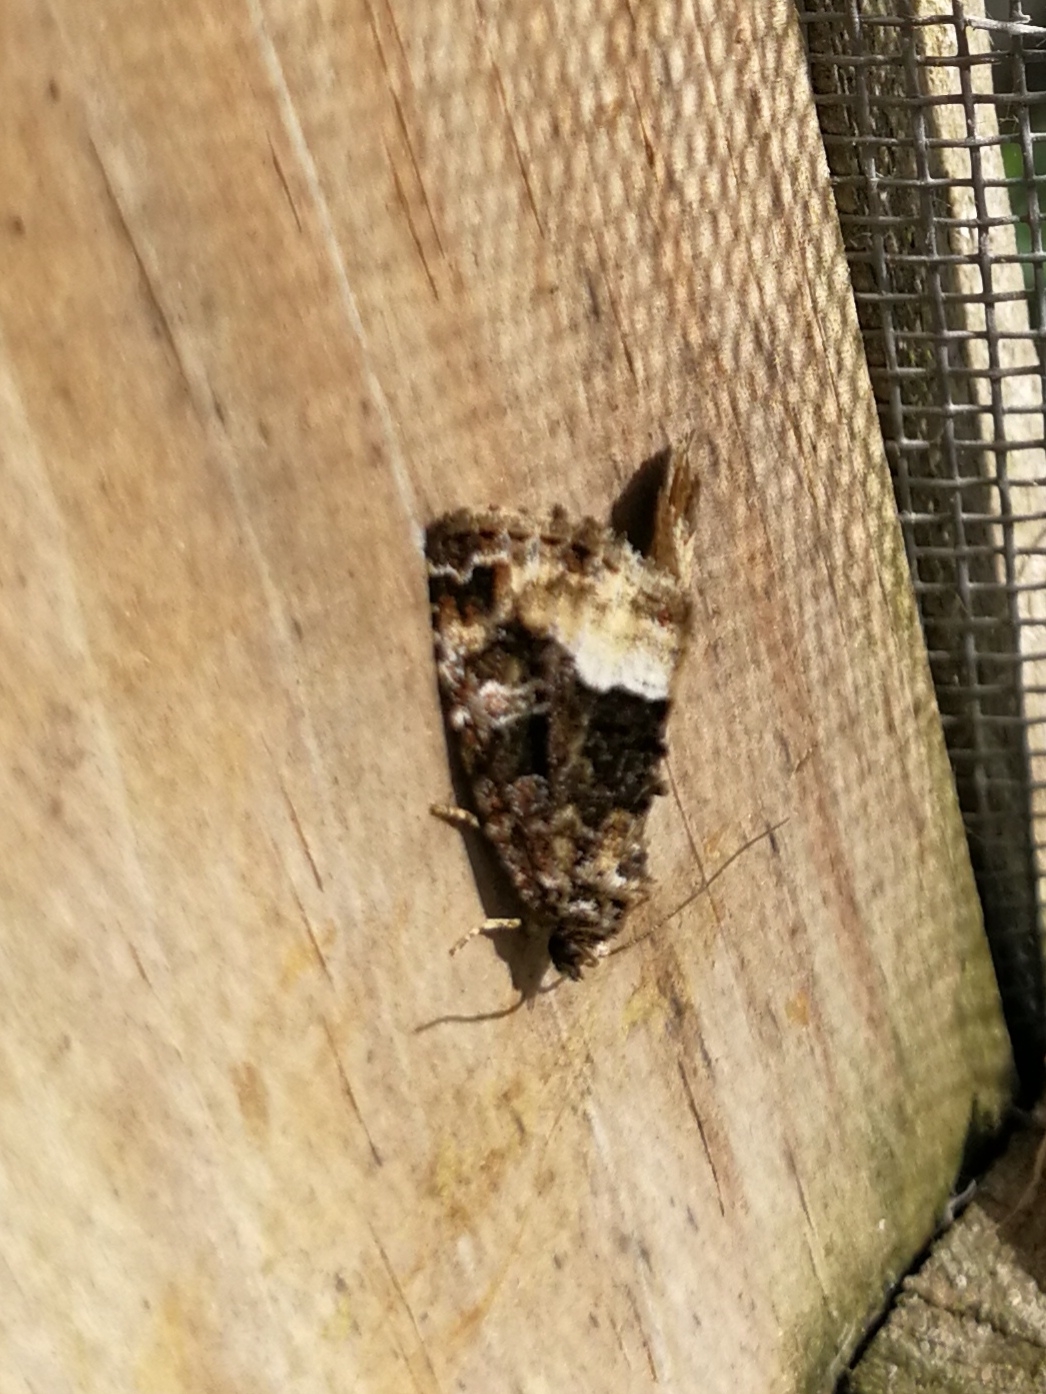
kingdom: Animalia
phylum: Arthropoda
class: Insecta
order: Lepidoptera
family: Noctuidae
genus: Deltote
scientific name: Deltote pygarga
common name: Marbled white spot
